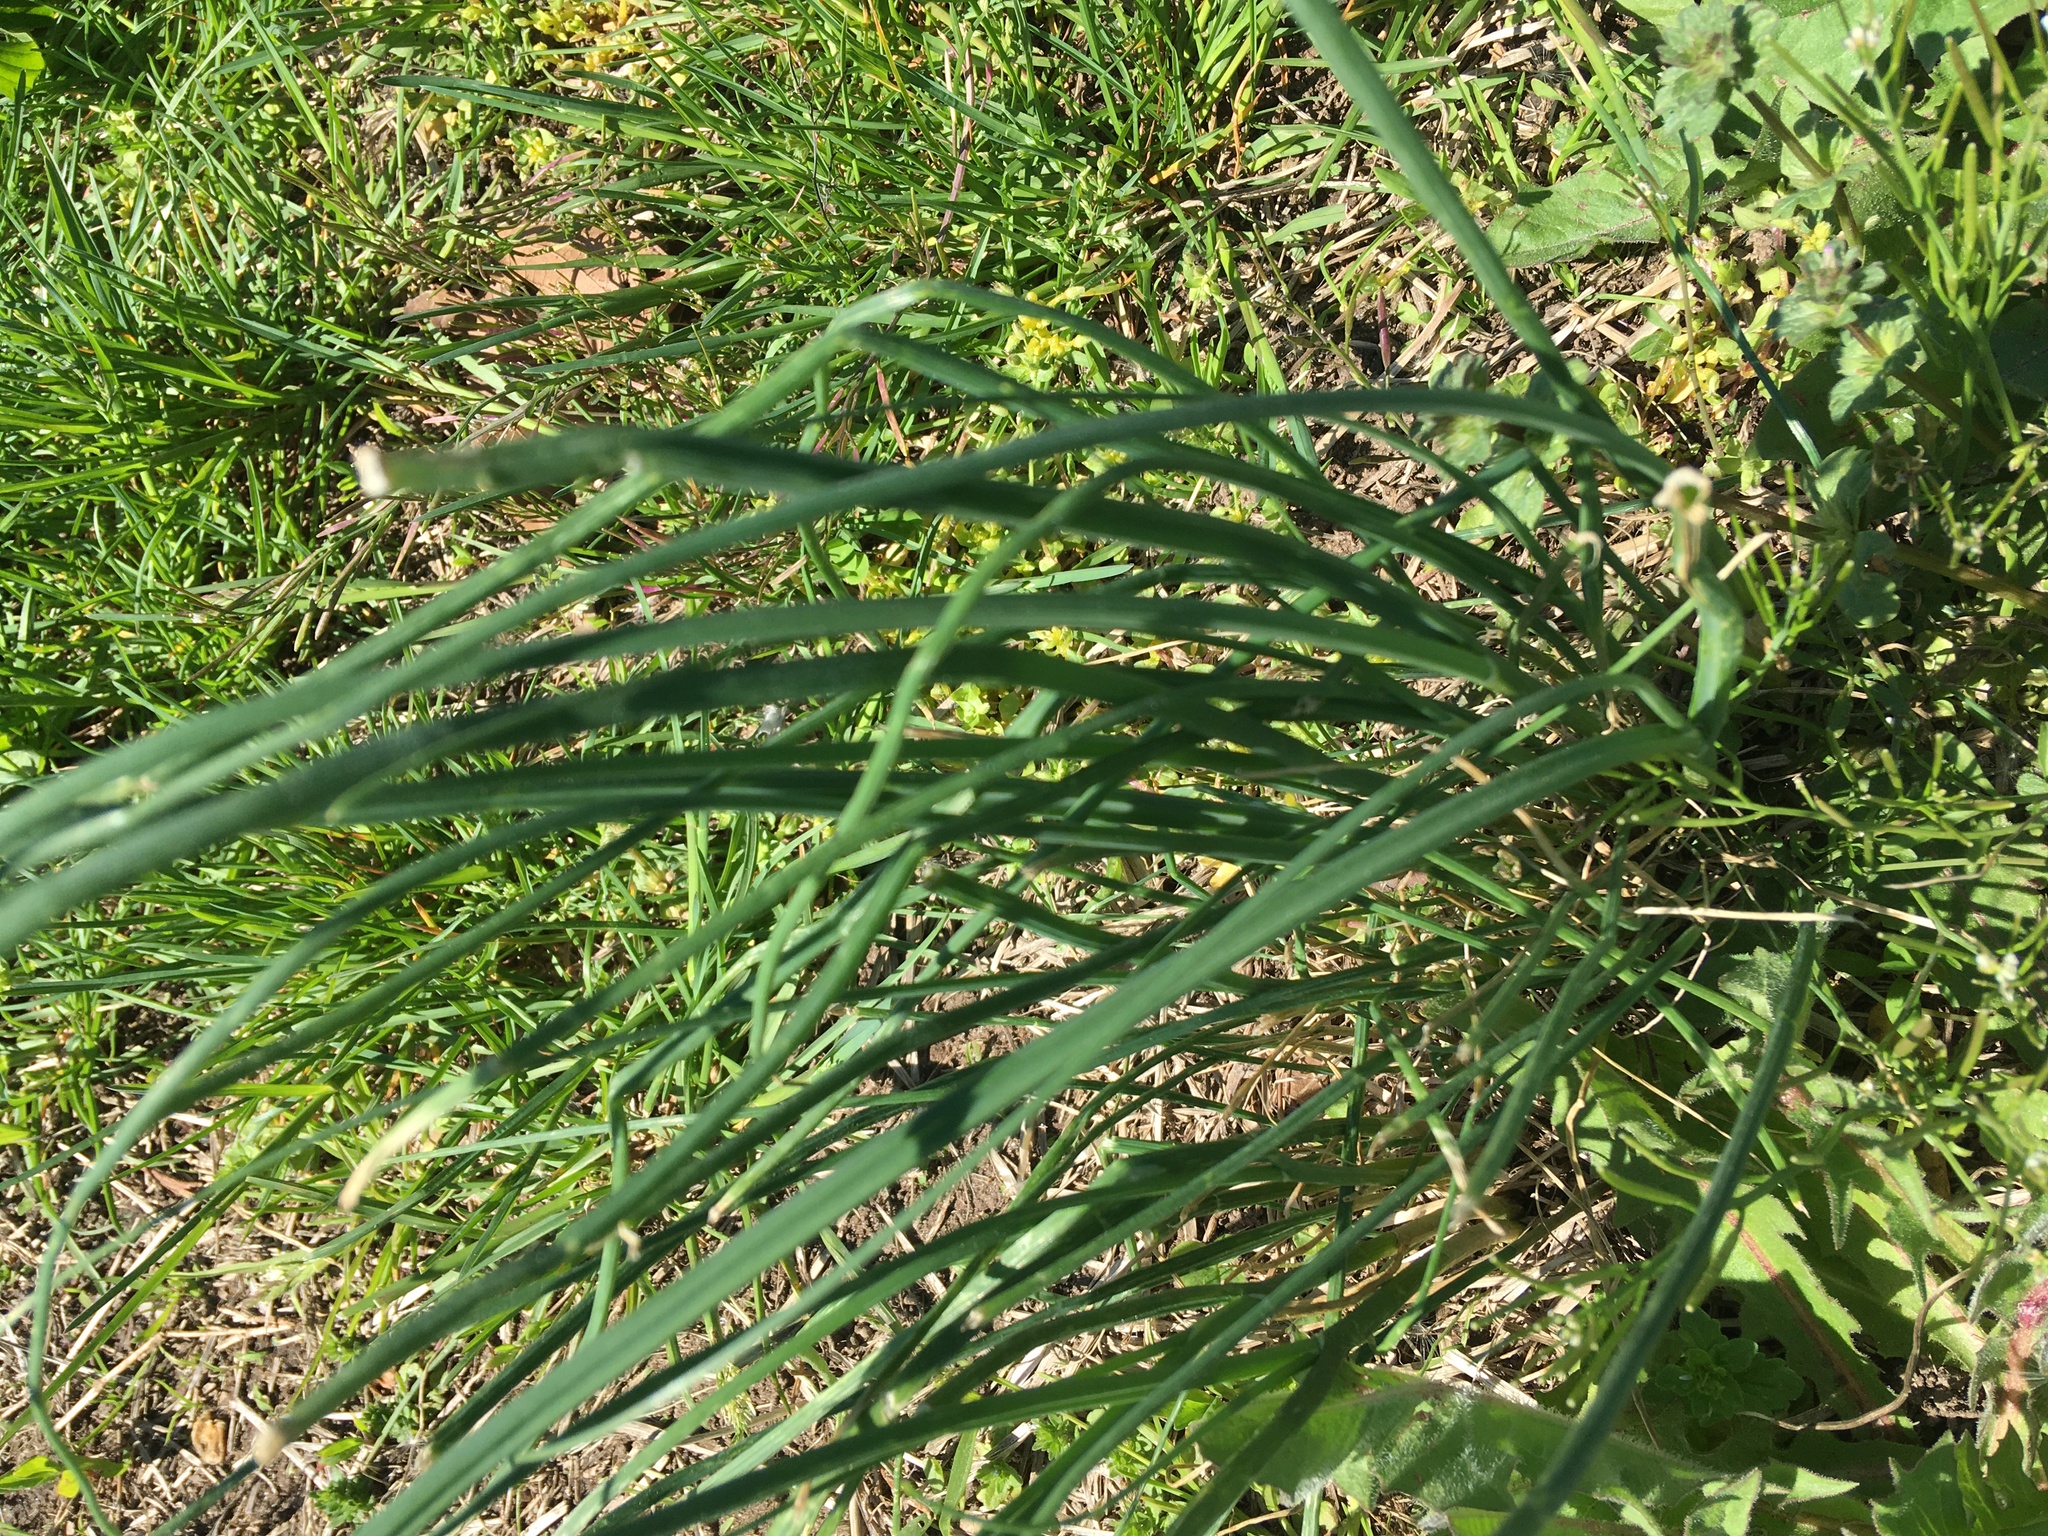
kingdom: Plantae
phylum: Tracheophyta
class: Liliopsida
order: Asparagales
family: Amaryllidaceae
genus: Allium
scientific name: Allium canadense
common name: Meadow garlic
